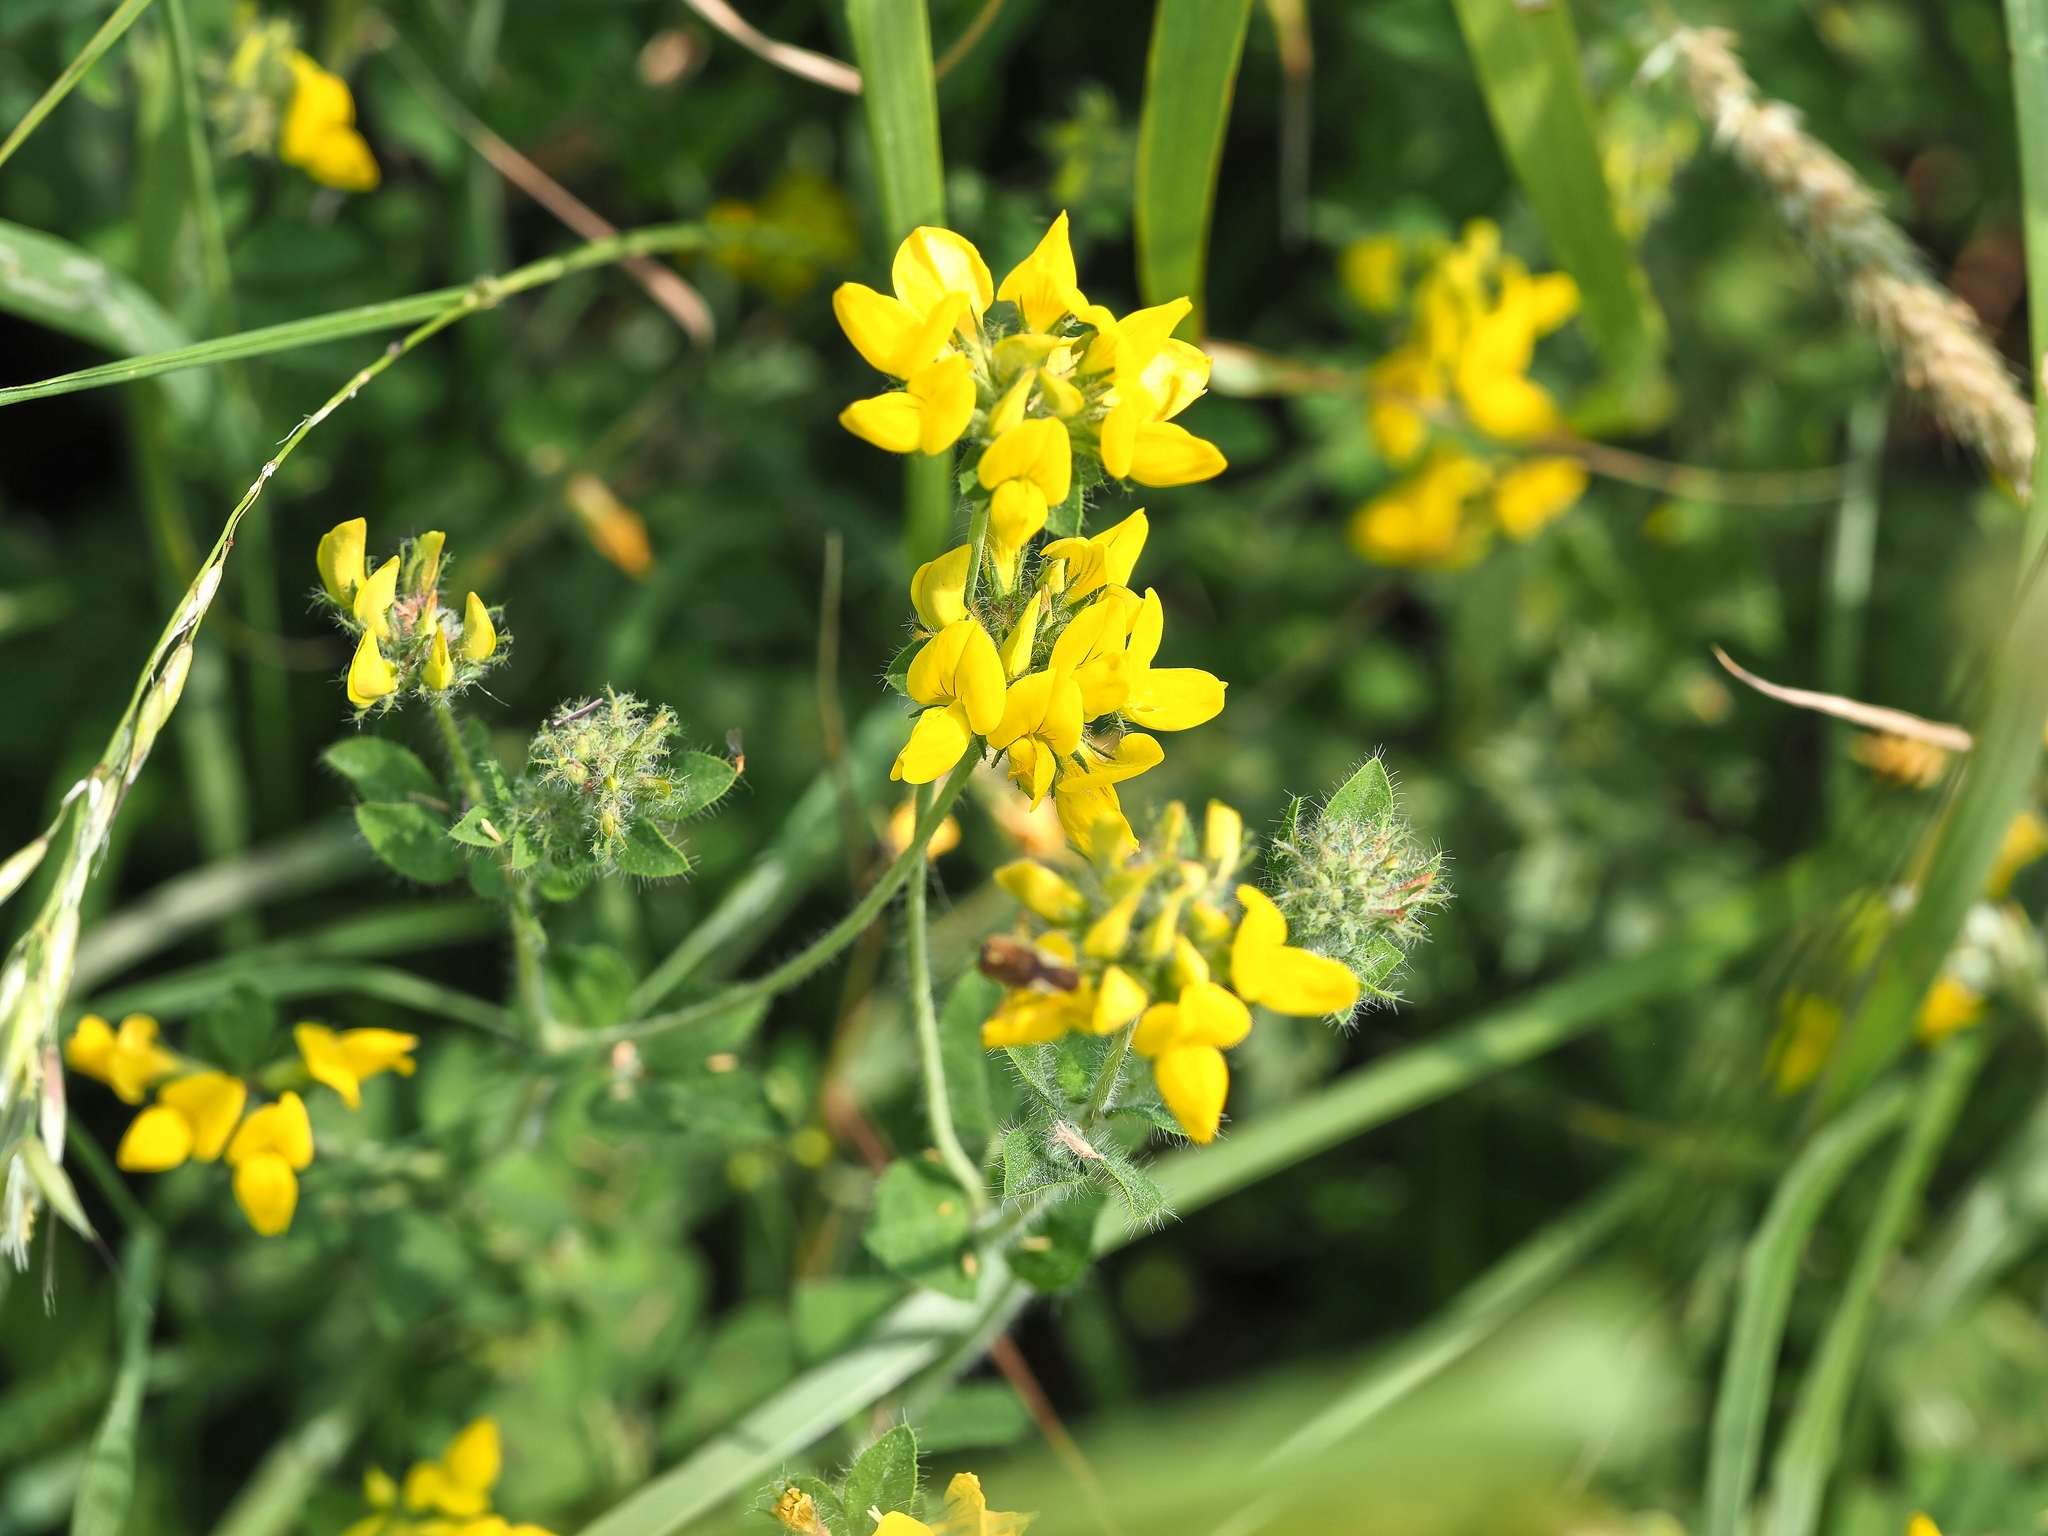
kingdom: Plantae
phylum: Tracheophyta
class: Magnoliopsida
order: Fabales
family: Fabaceae
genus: Lotus
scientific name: Lotus corniculatus
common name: Common bird's-foot-trefoil
